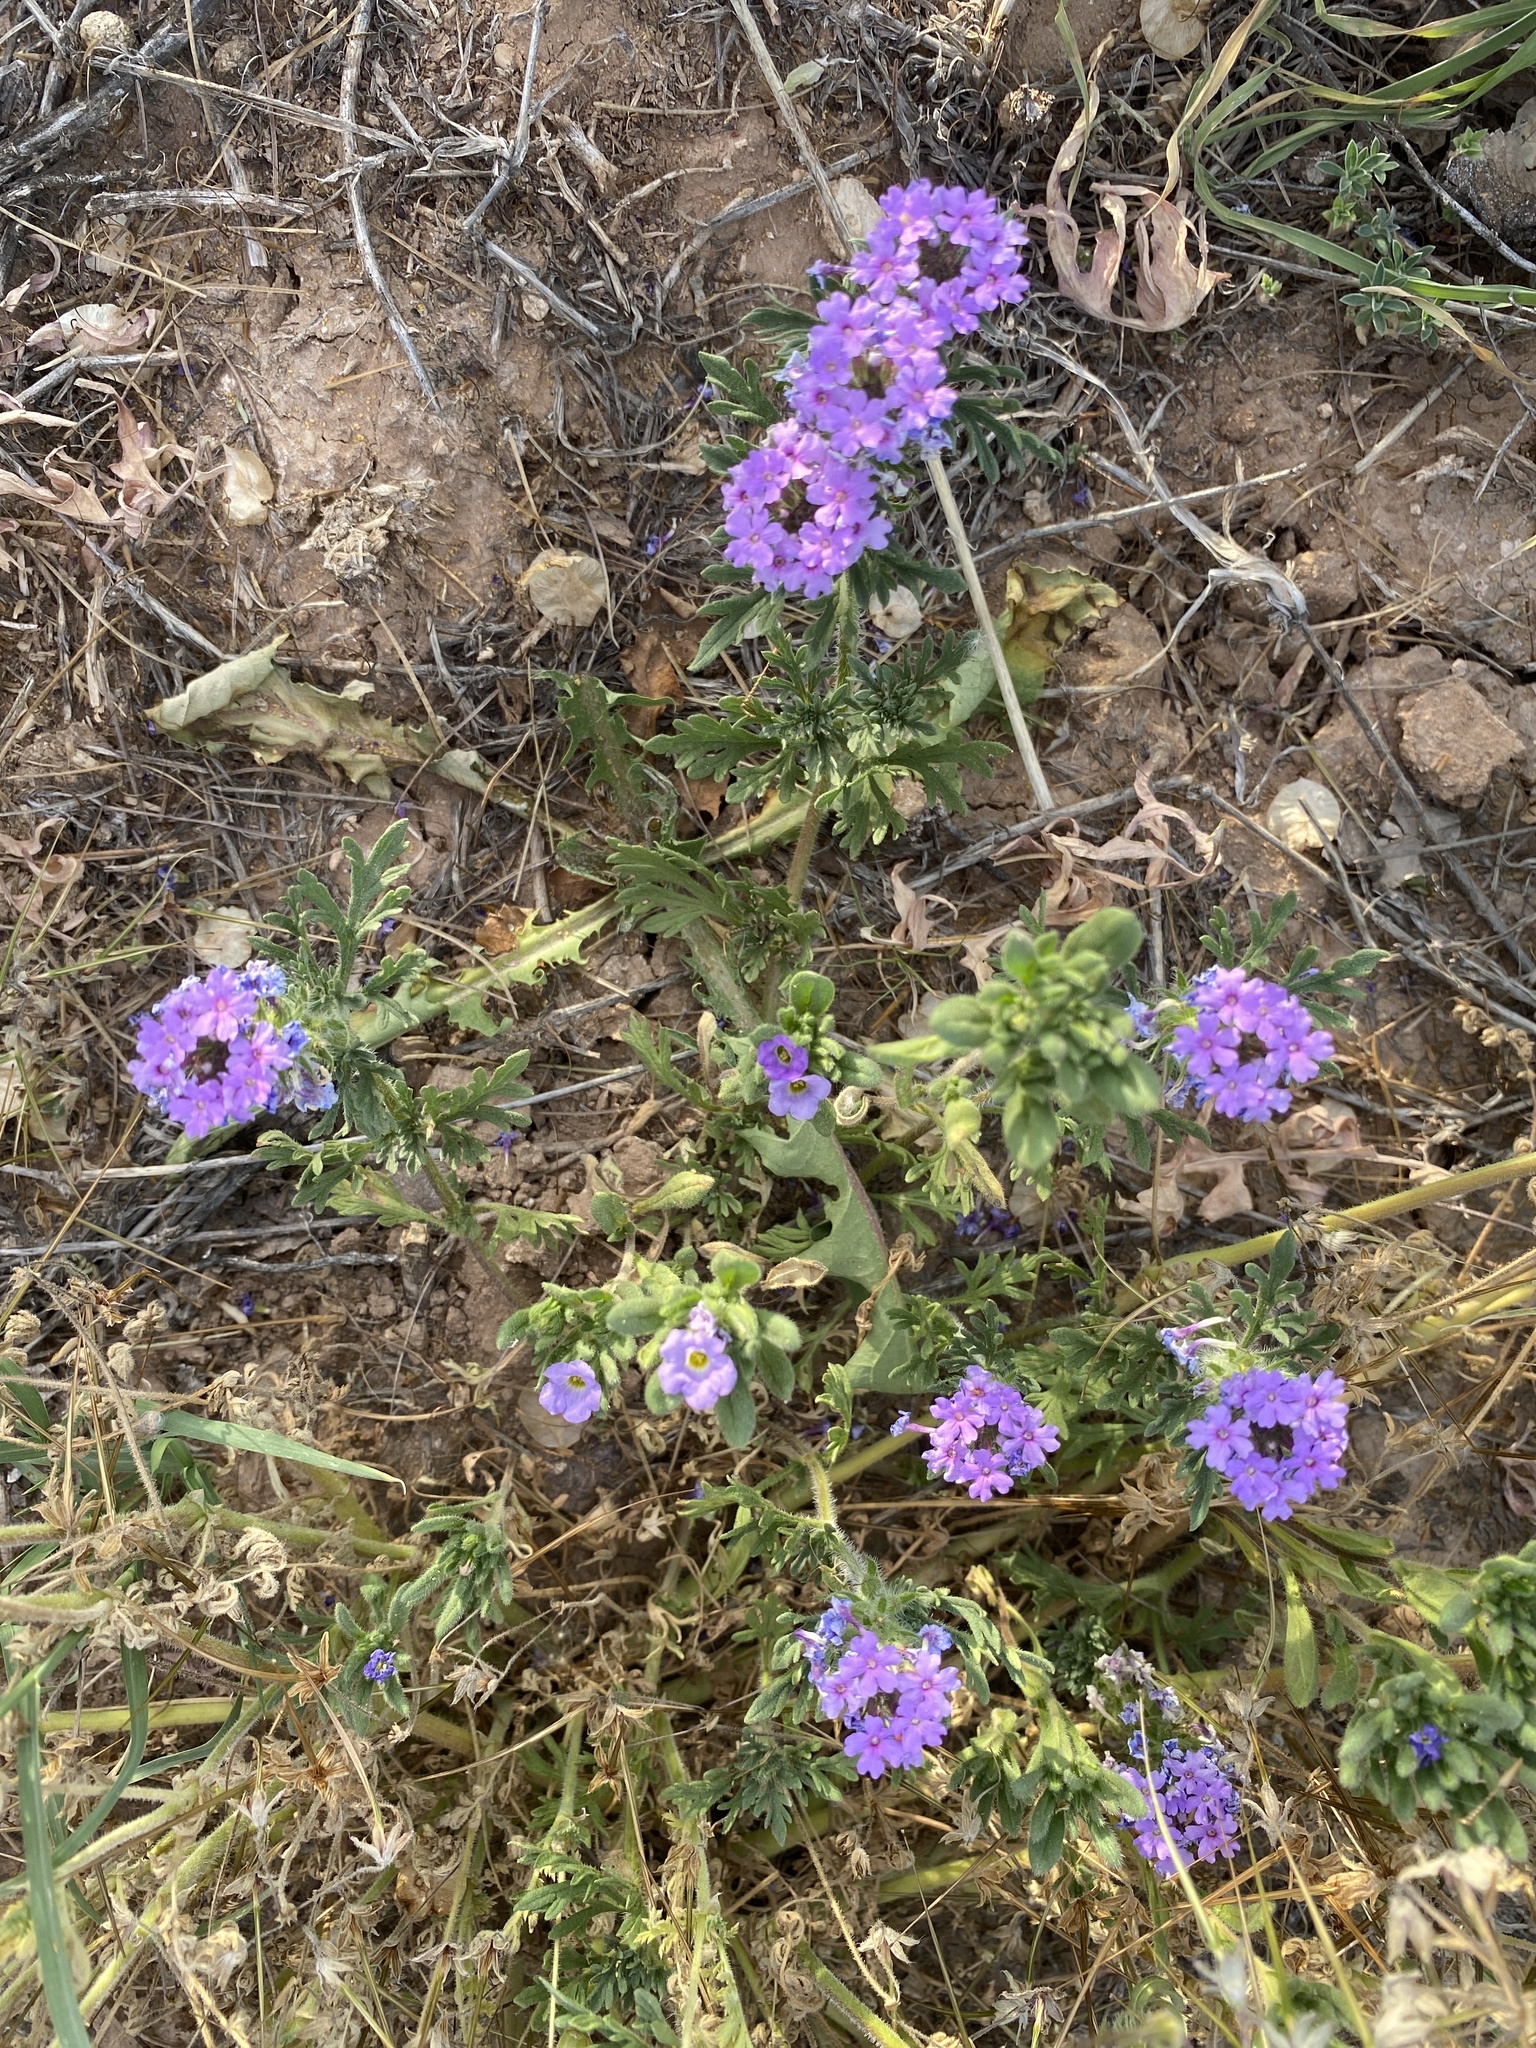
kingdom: Plantae
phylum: Tracheophyta
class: Magnoliopsida
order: Lamiales
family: Verbenaceae
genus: Verbena
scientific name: Verbena bipinnatifida
